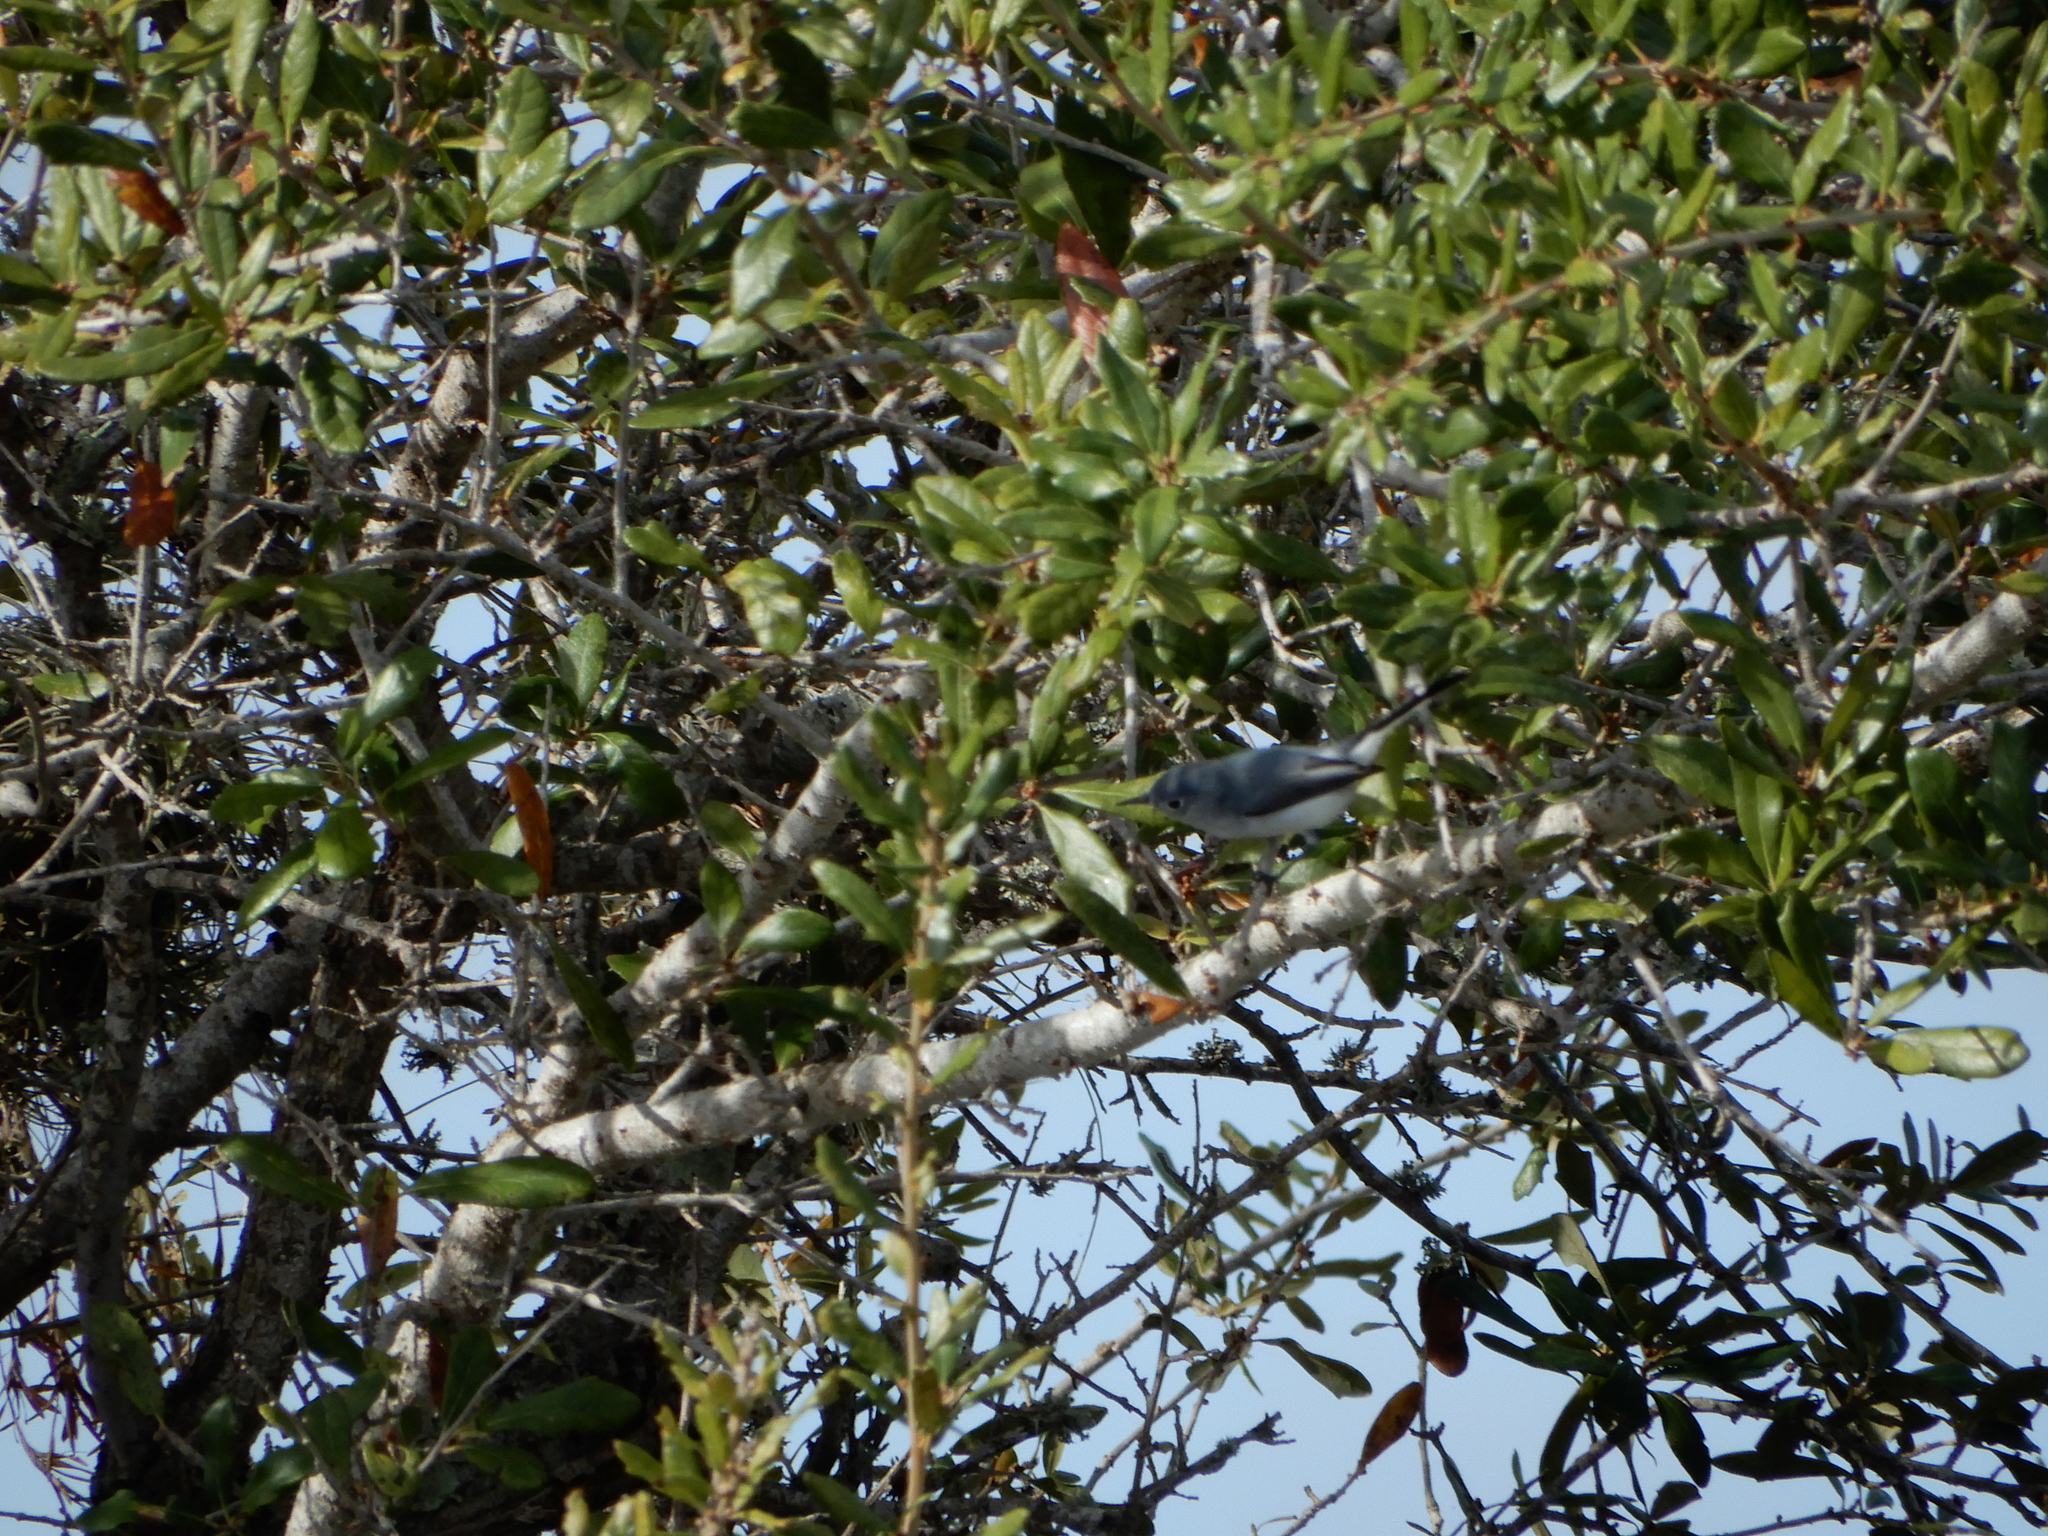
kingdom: Animalia
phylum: Chordata
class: Aves
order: Passeriformes
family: Polioptilidae
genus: Polioptila
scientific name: Polioptila caerulea
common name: Blue-gray gnatcatcher
